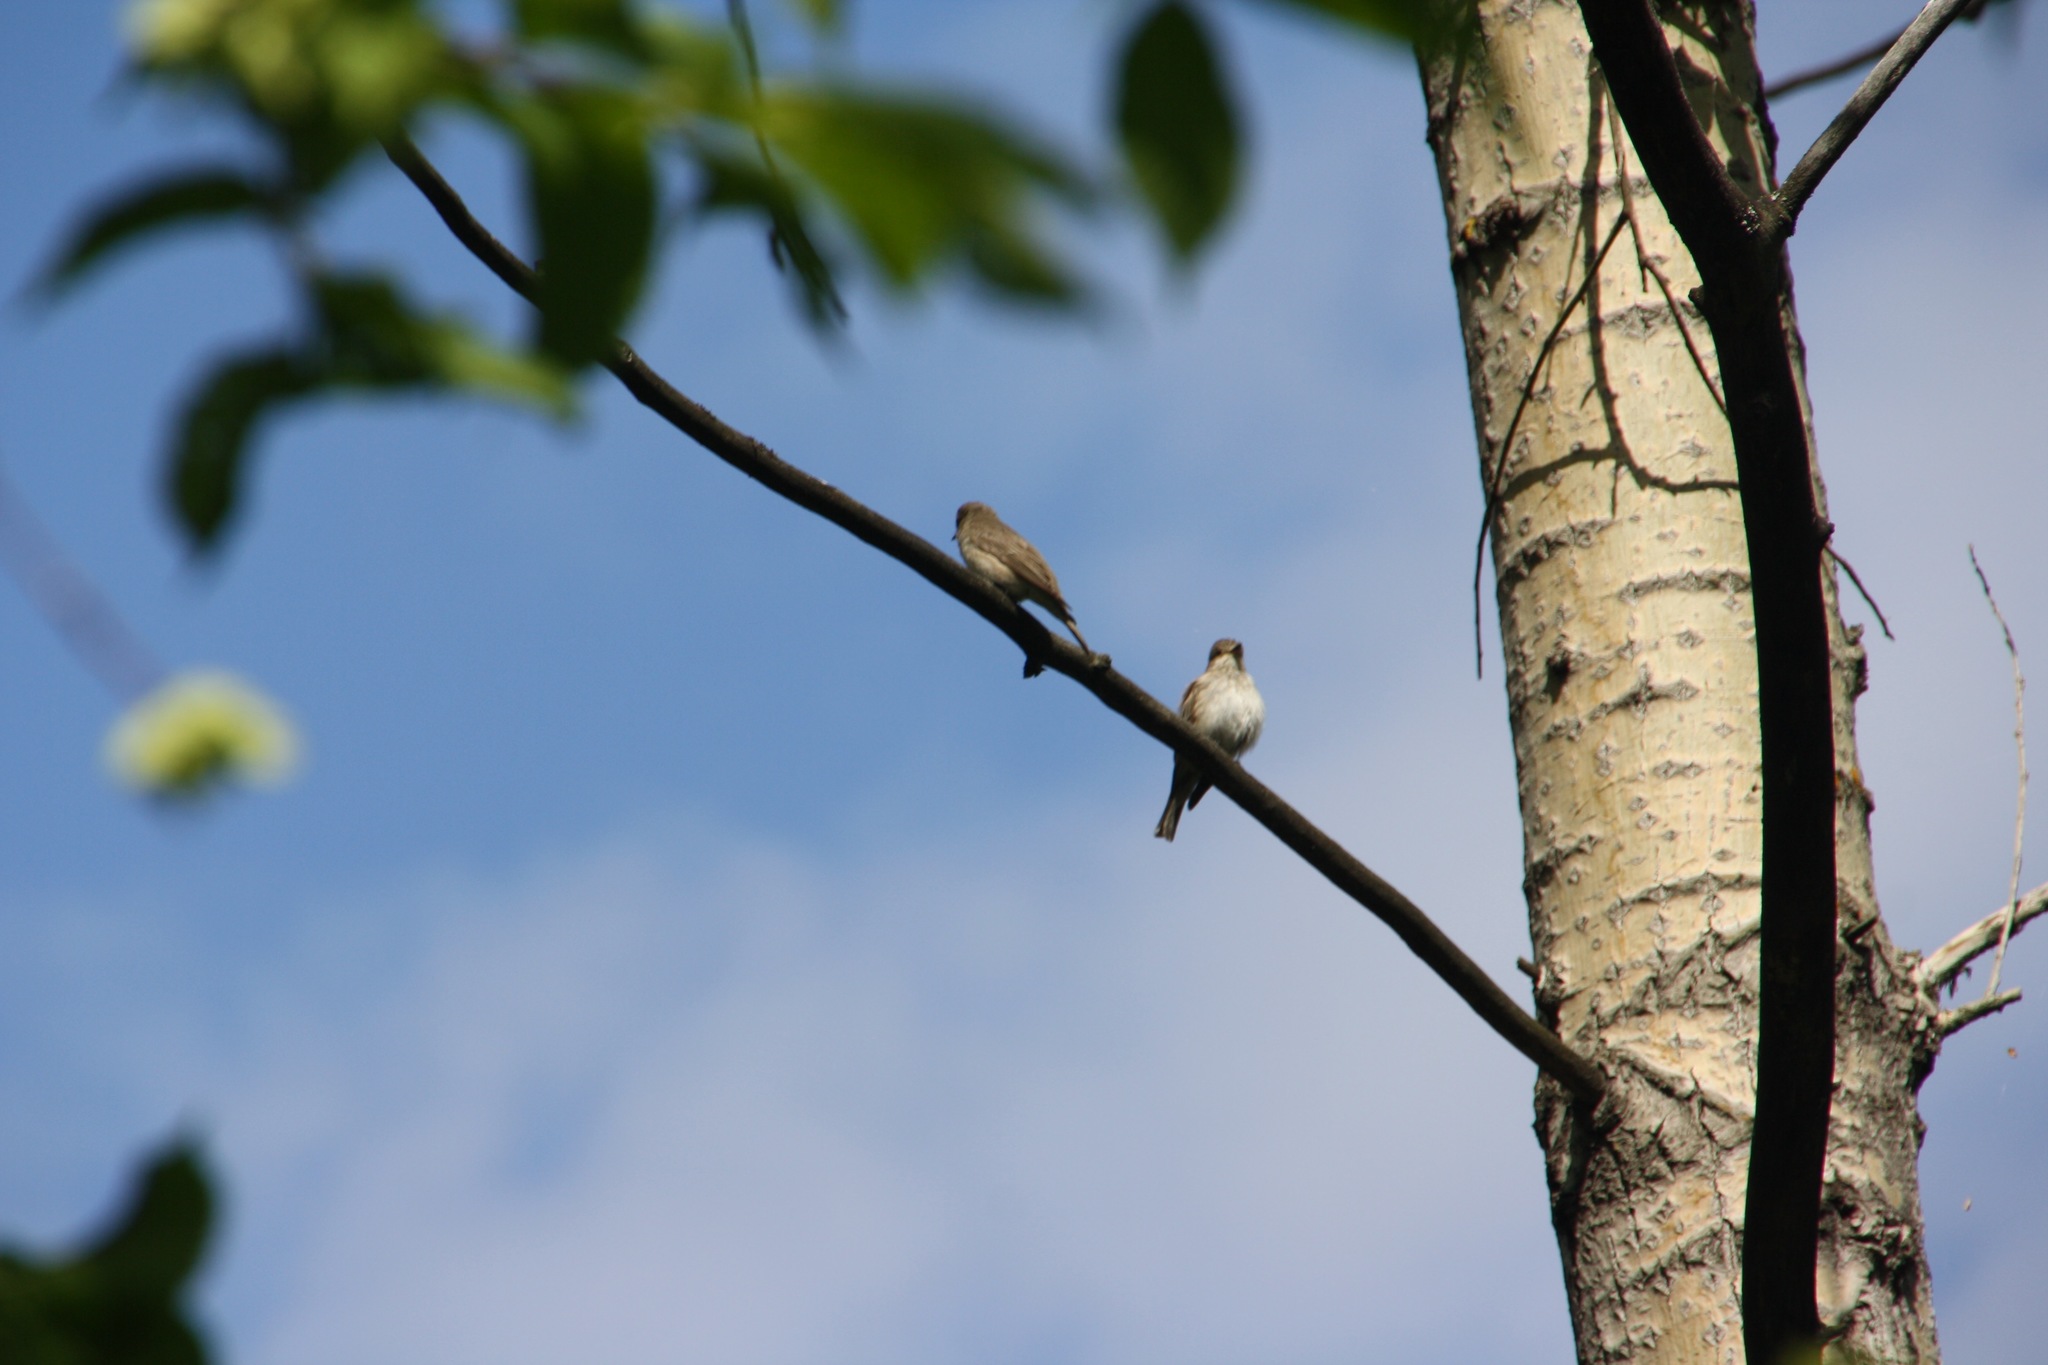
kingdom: Animalia
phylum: Chordata
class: Aves
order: Passeriformes
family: Muscicapidae
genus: Muscicapa
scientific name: Muscicapa striata
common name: Spotted flycatcher
